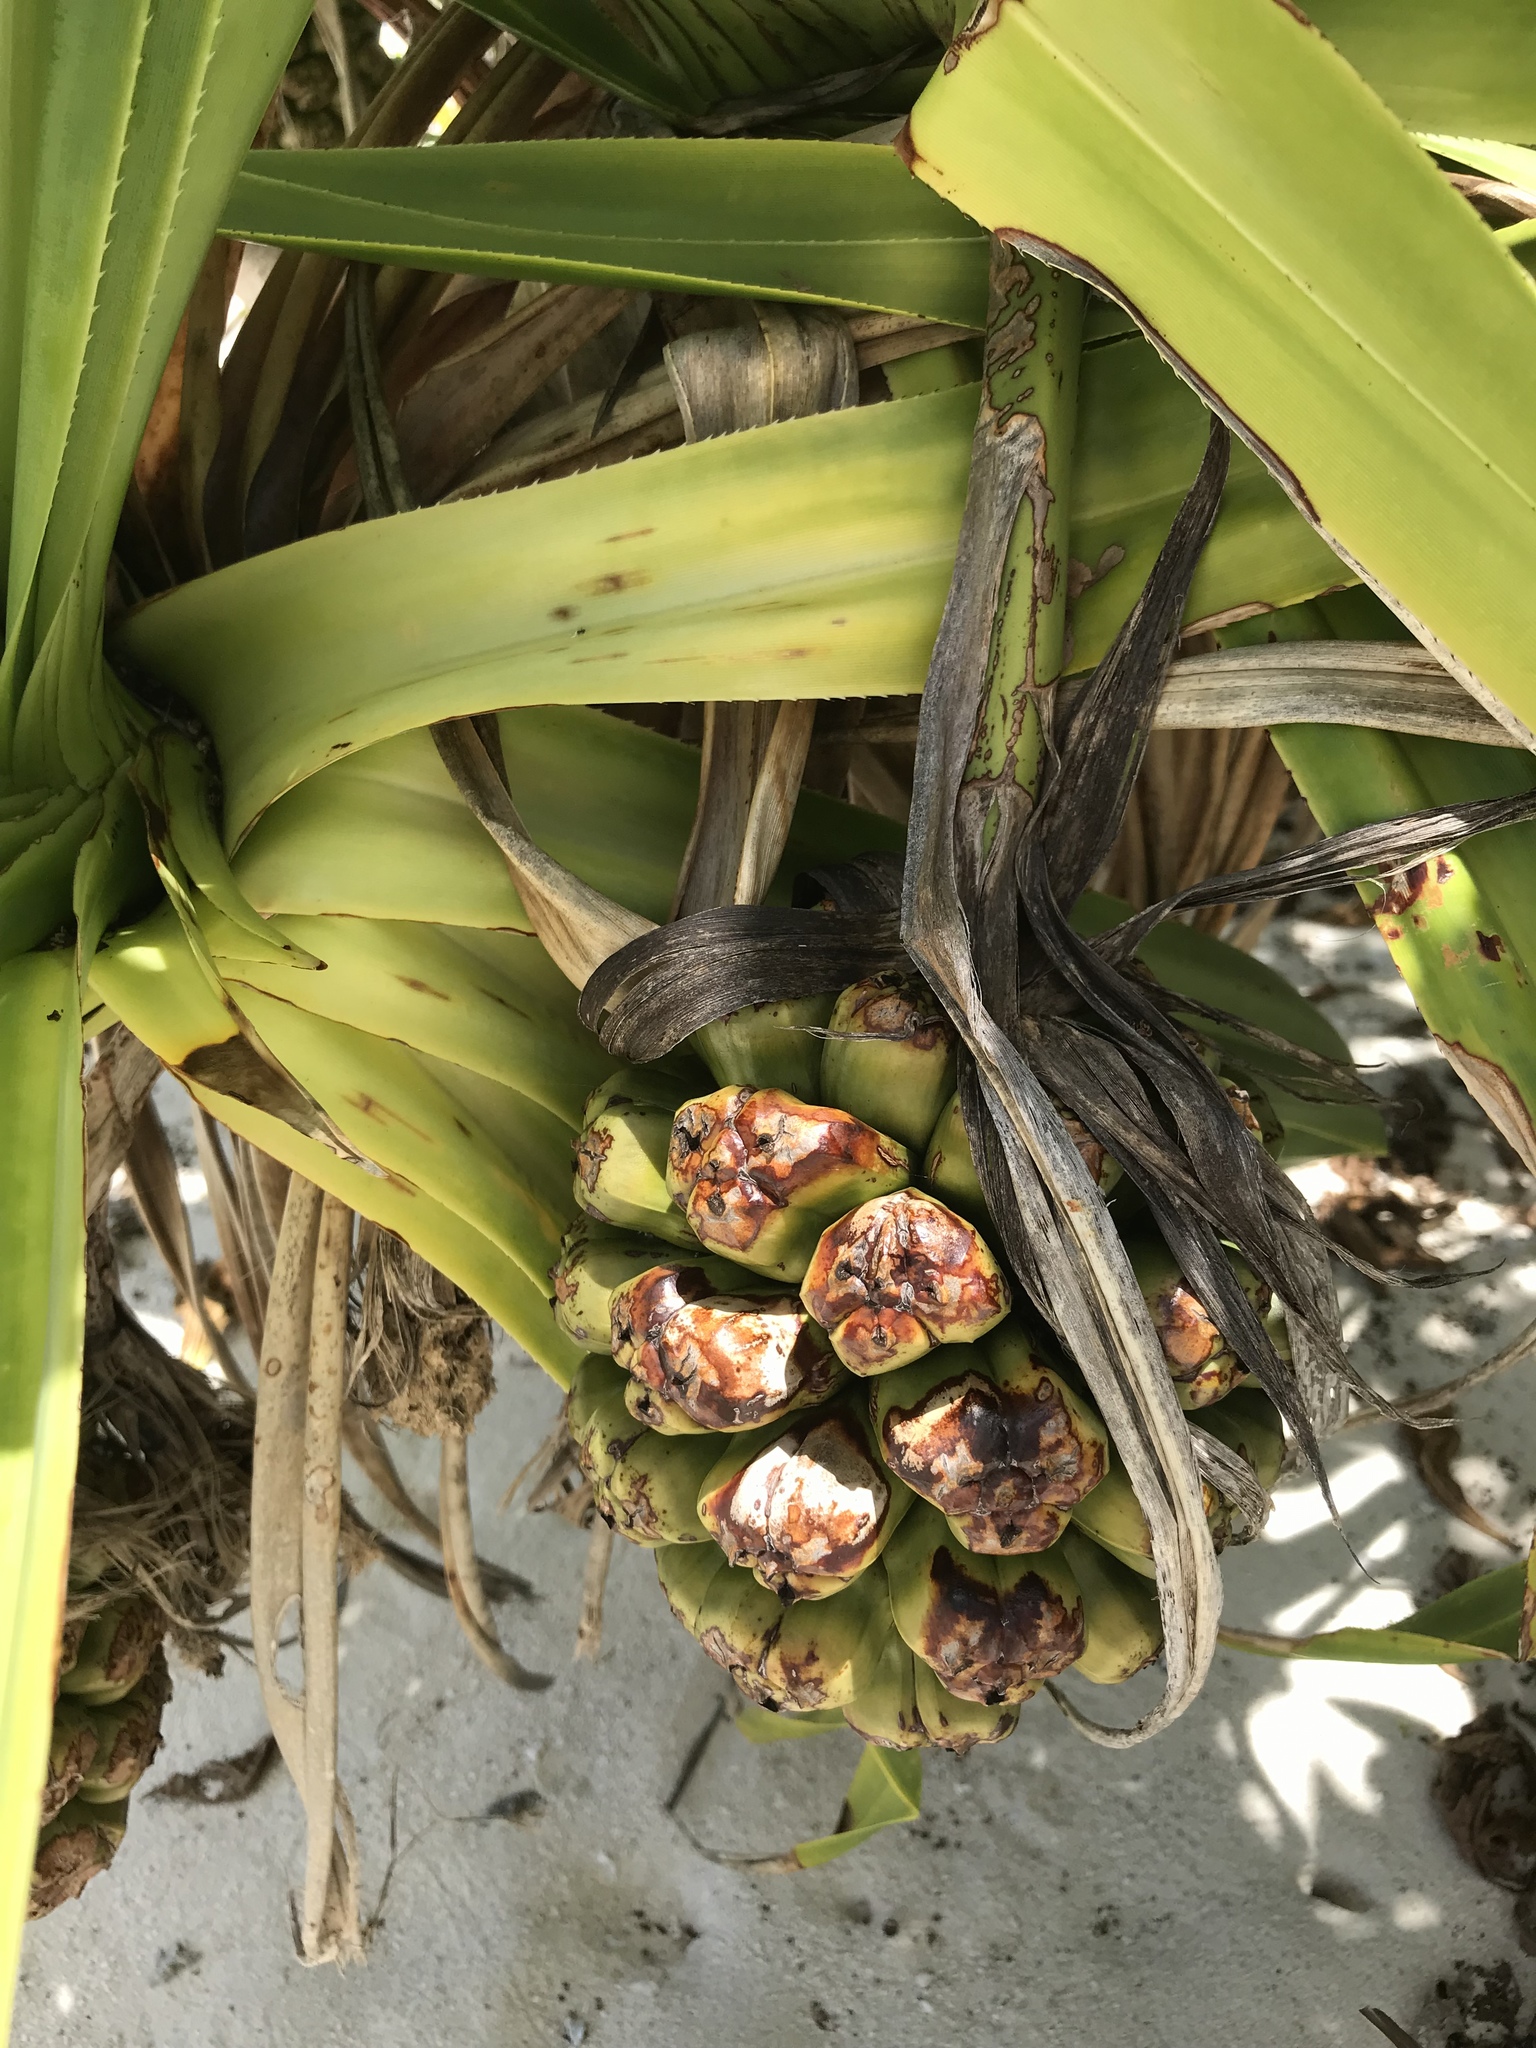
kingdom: Plantae
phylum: Tracheophyta
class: Liliopsida
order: Pandanales
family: Pandanaceae
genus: Pandanus
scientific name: Pandanus tectorius
